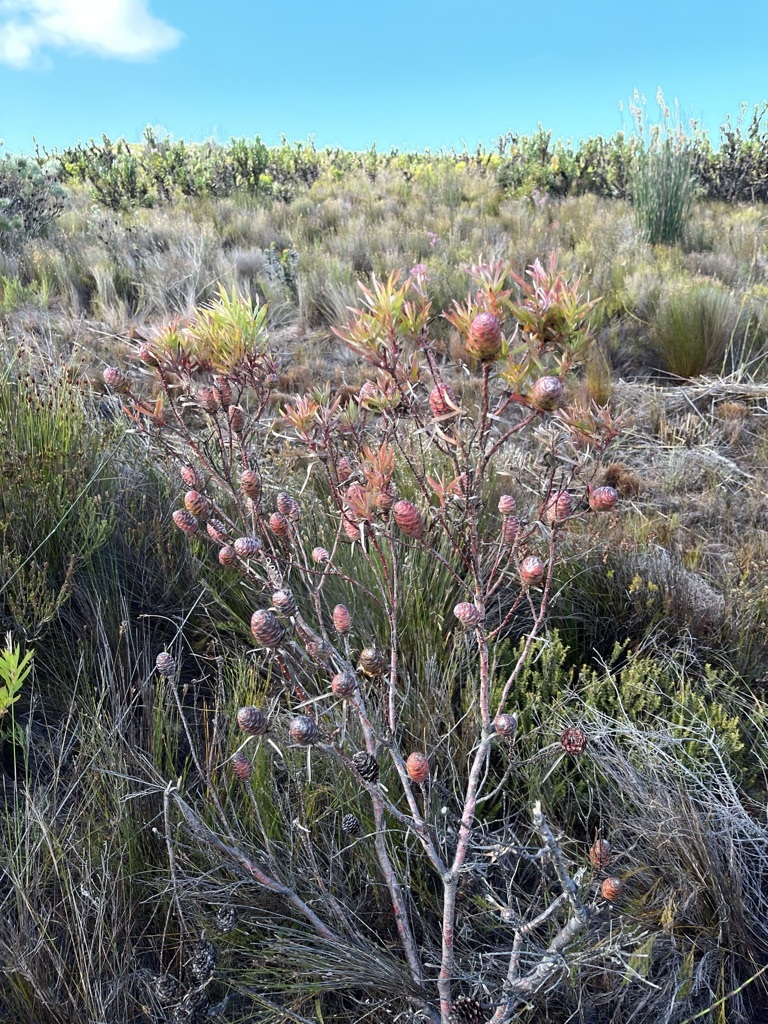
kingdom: Plantae
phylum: Tracheophyta
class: Magnoliopsida
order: Proteales
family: Proteaceae
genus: Leucadendron
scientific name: Leucadendron xanthoconus
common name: Sickle-leaf conebush
